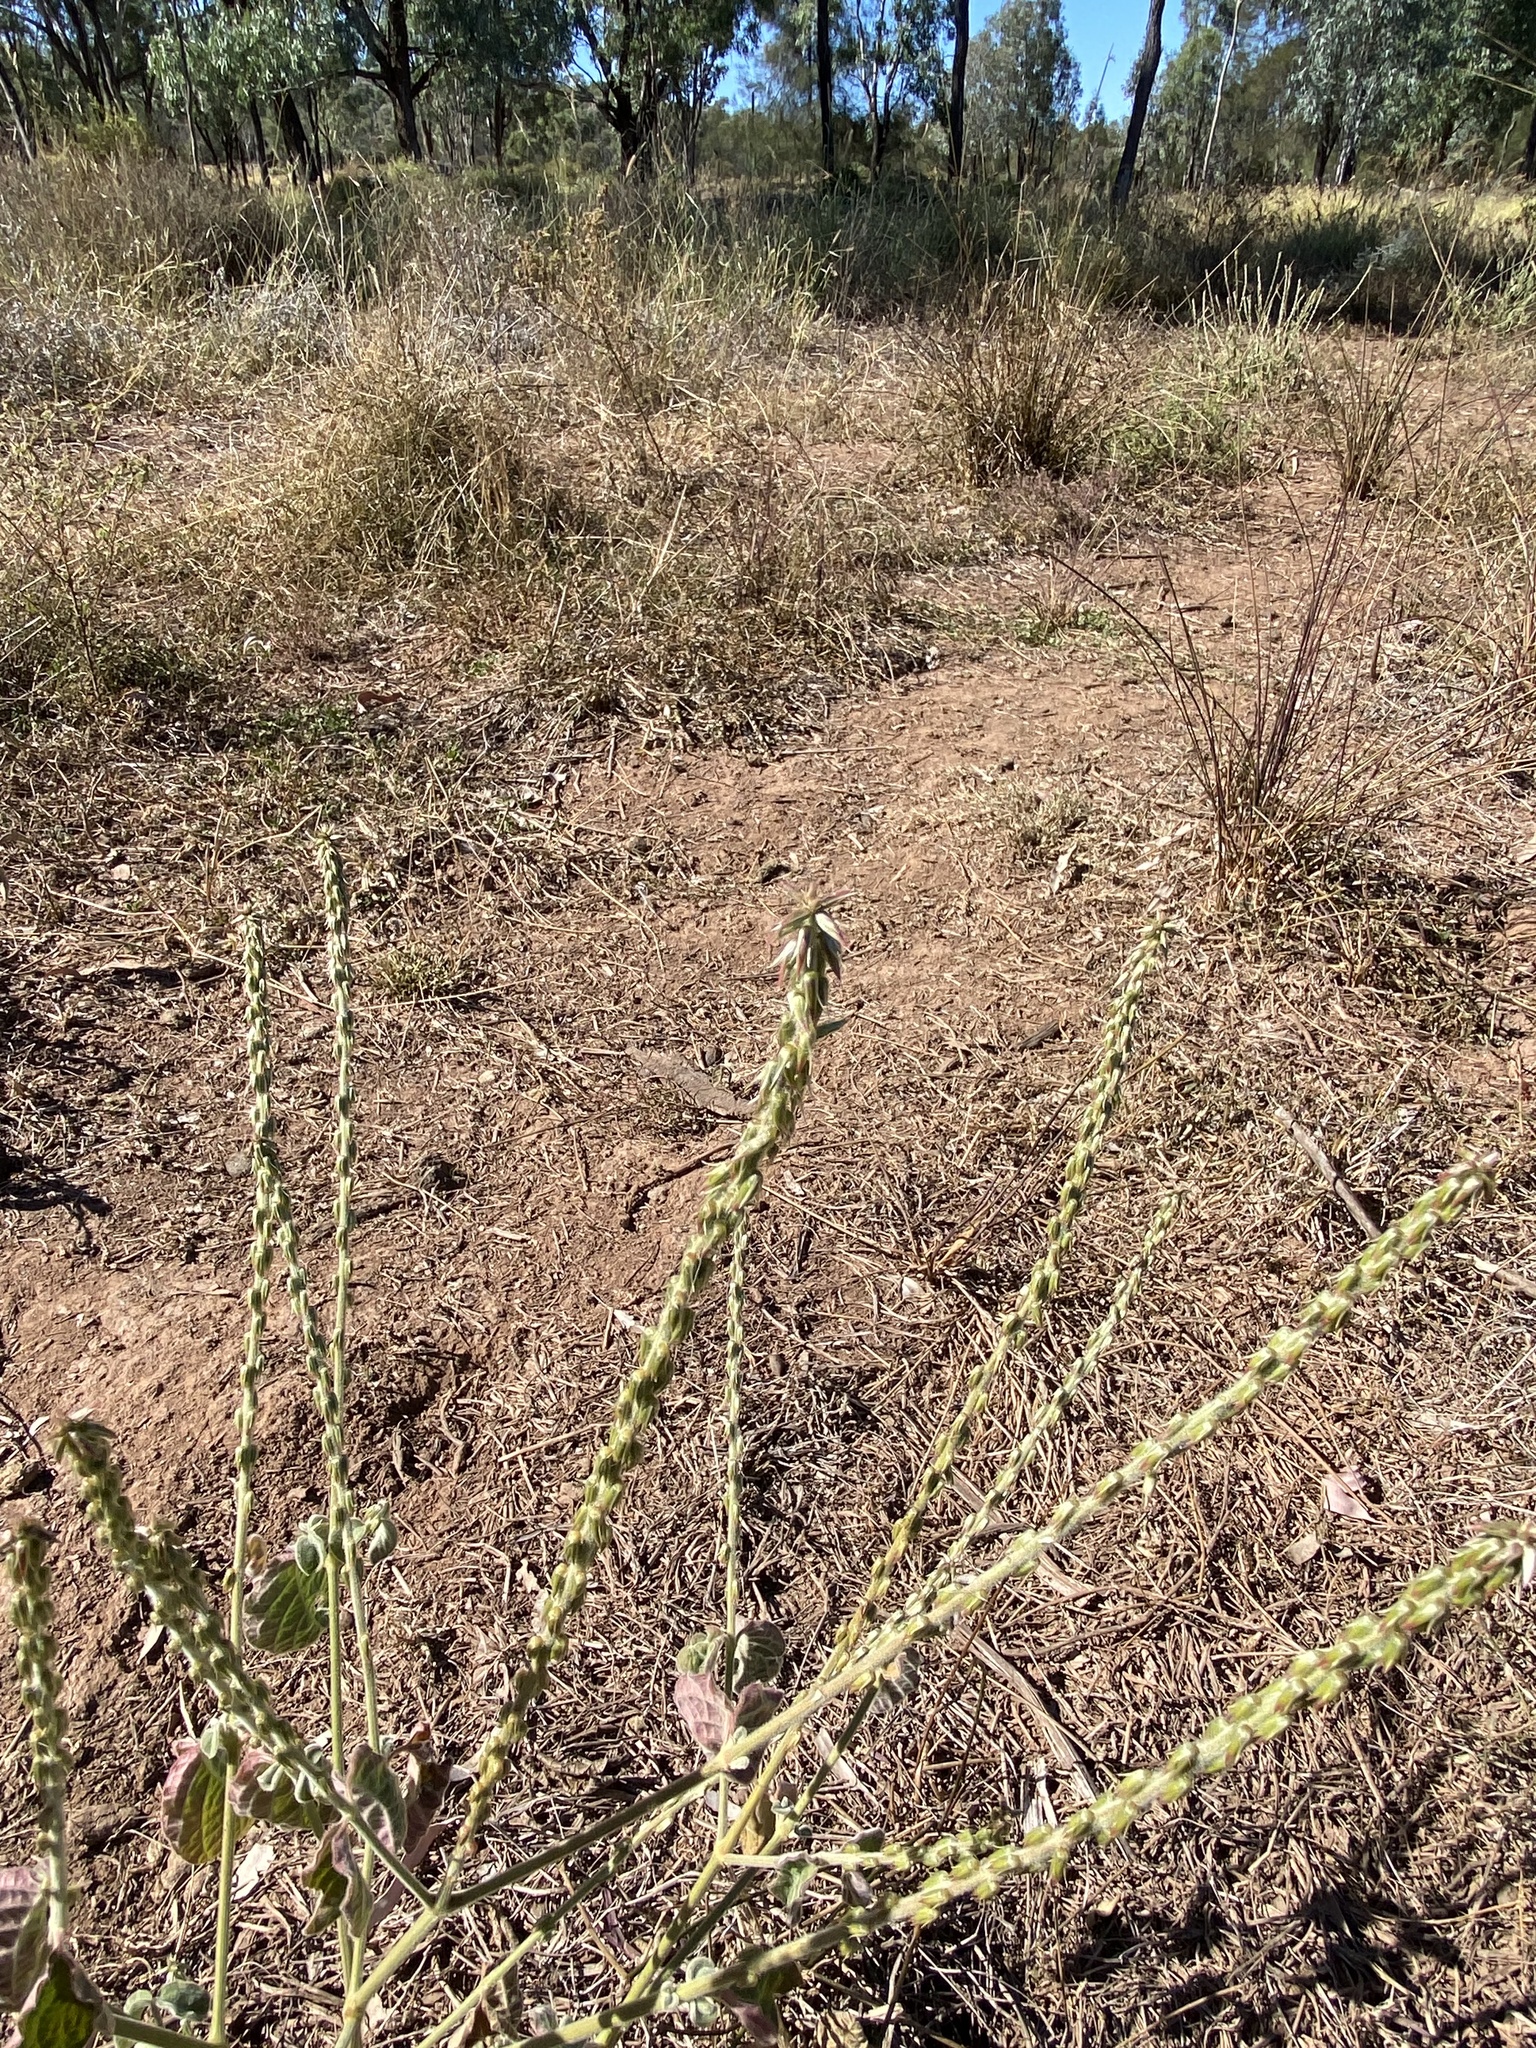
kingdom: Plantae
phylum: Tracheophyta
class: Magnoliopsida
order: Caryophyllales
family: Amaranthaceae
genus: Achyranthes
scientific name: Achyranthes aspera
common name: Devil's horsewhip
